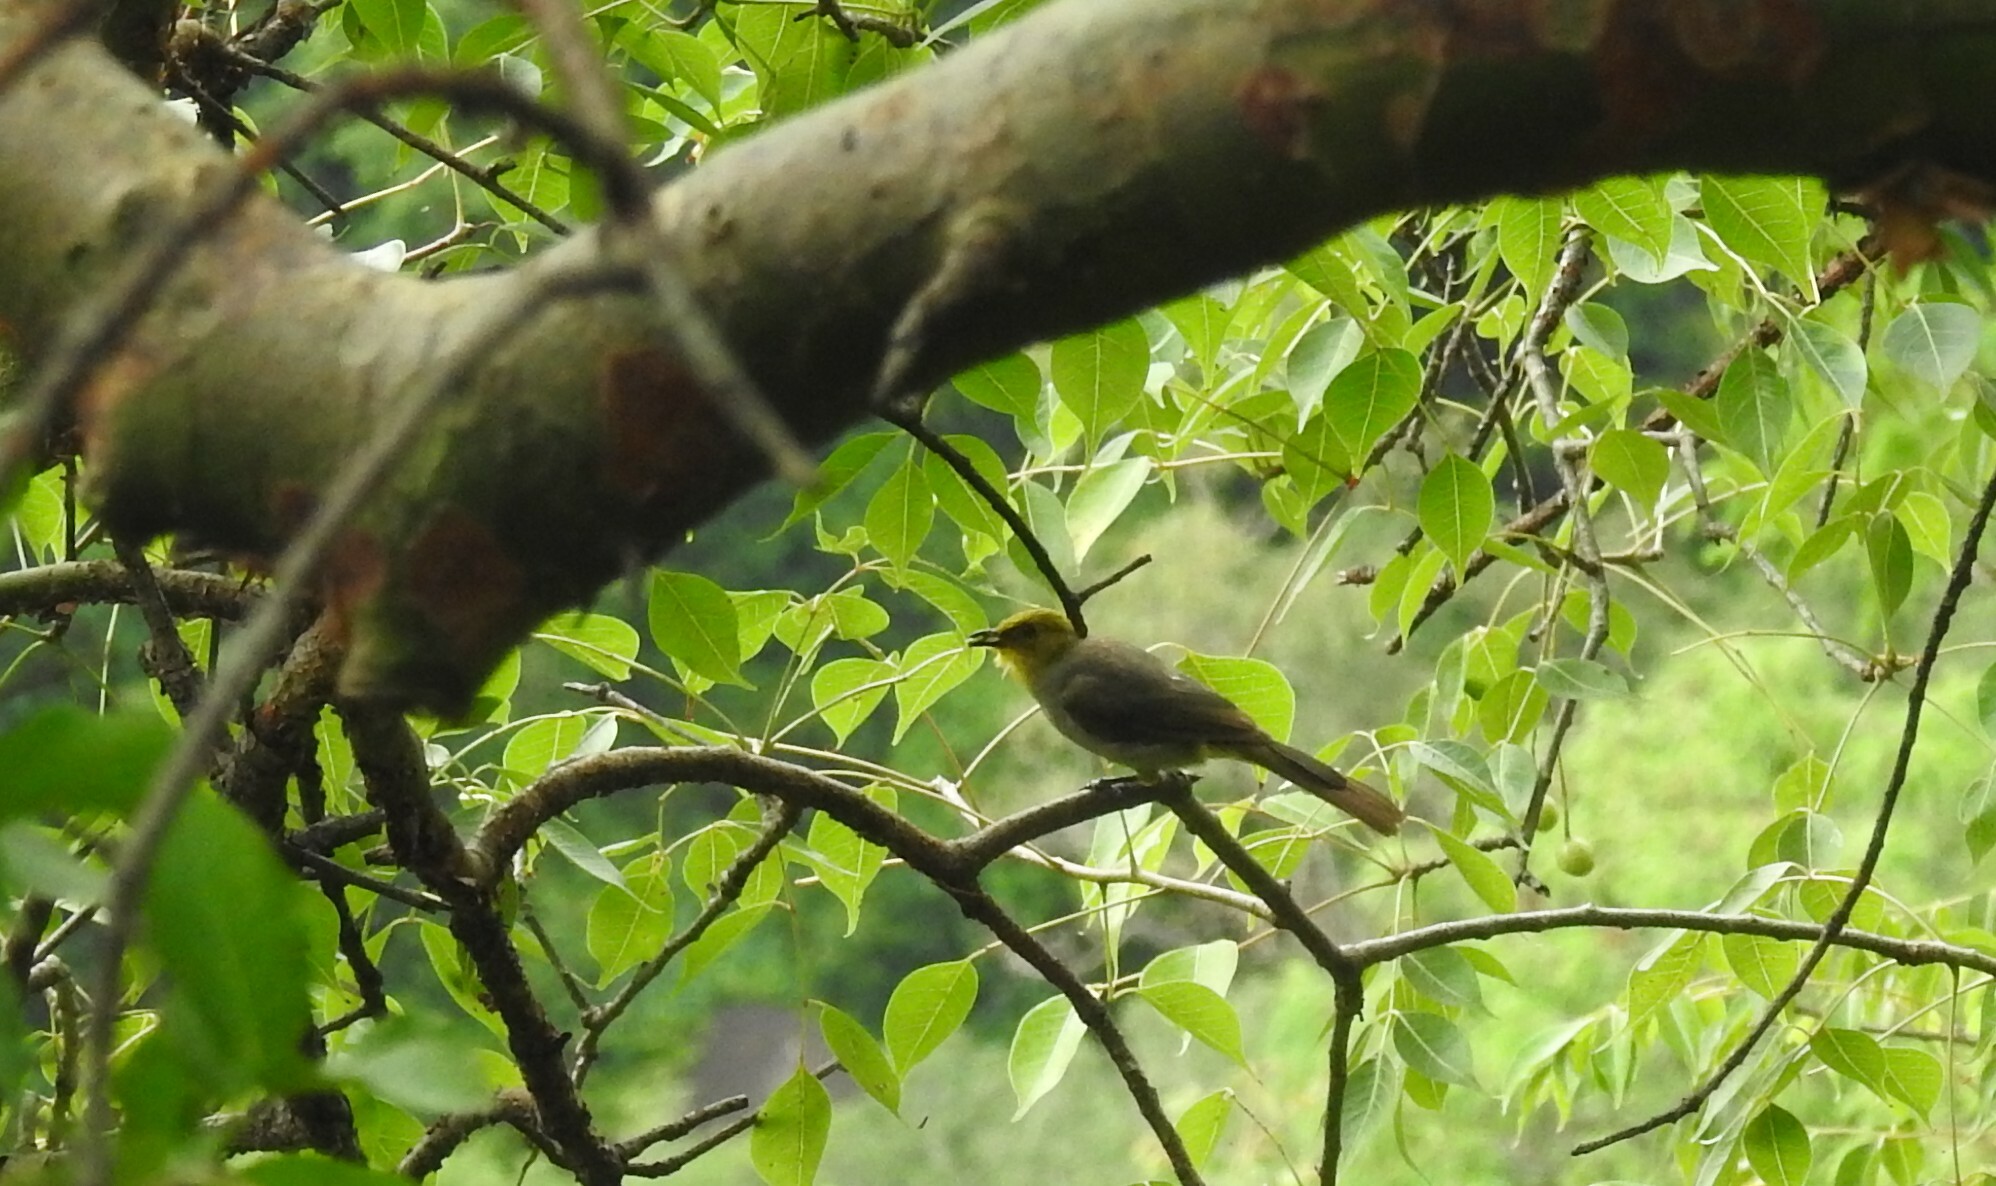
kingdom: Animalia
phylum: Chordata
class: Aves
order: Passeriformes
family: Pycnonotidae
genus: Pycnonotus
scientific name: Pycnonotus xantholaemus
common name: Yellow-throated bulbul
